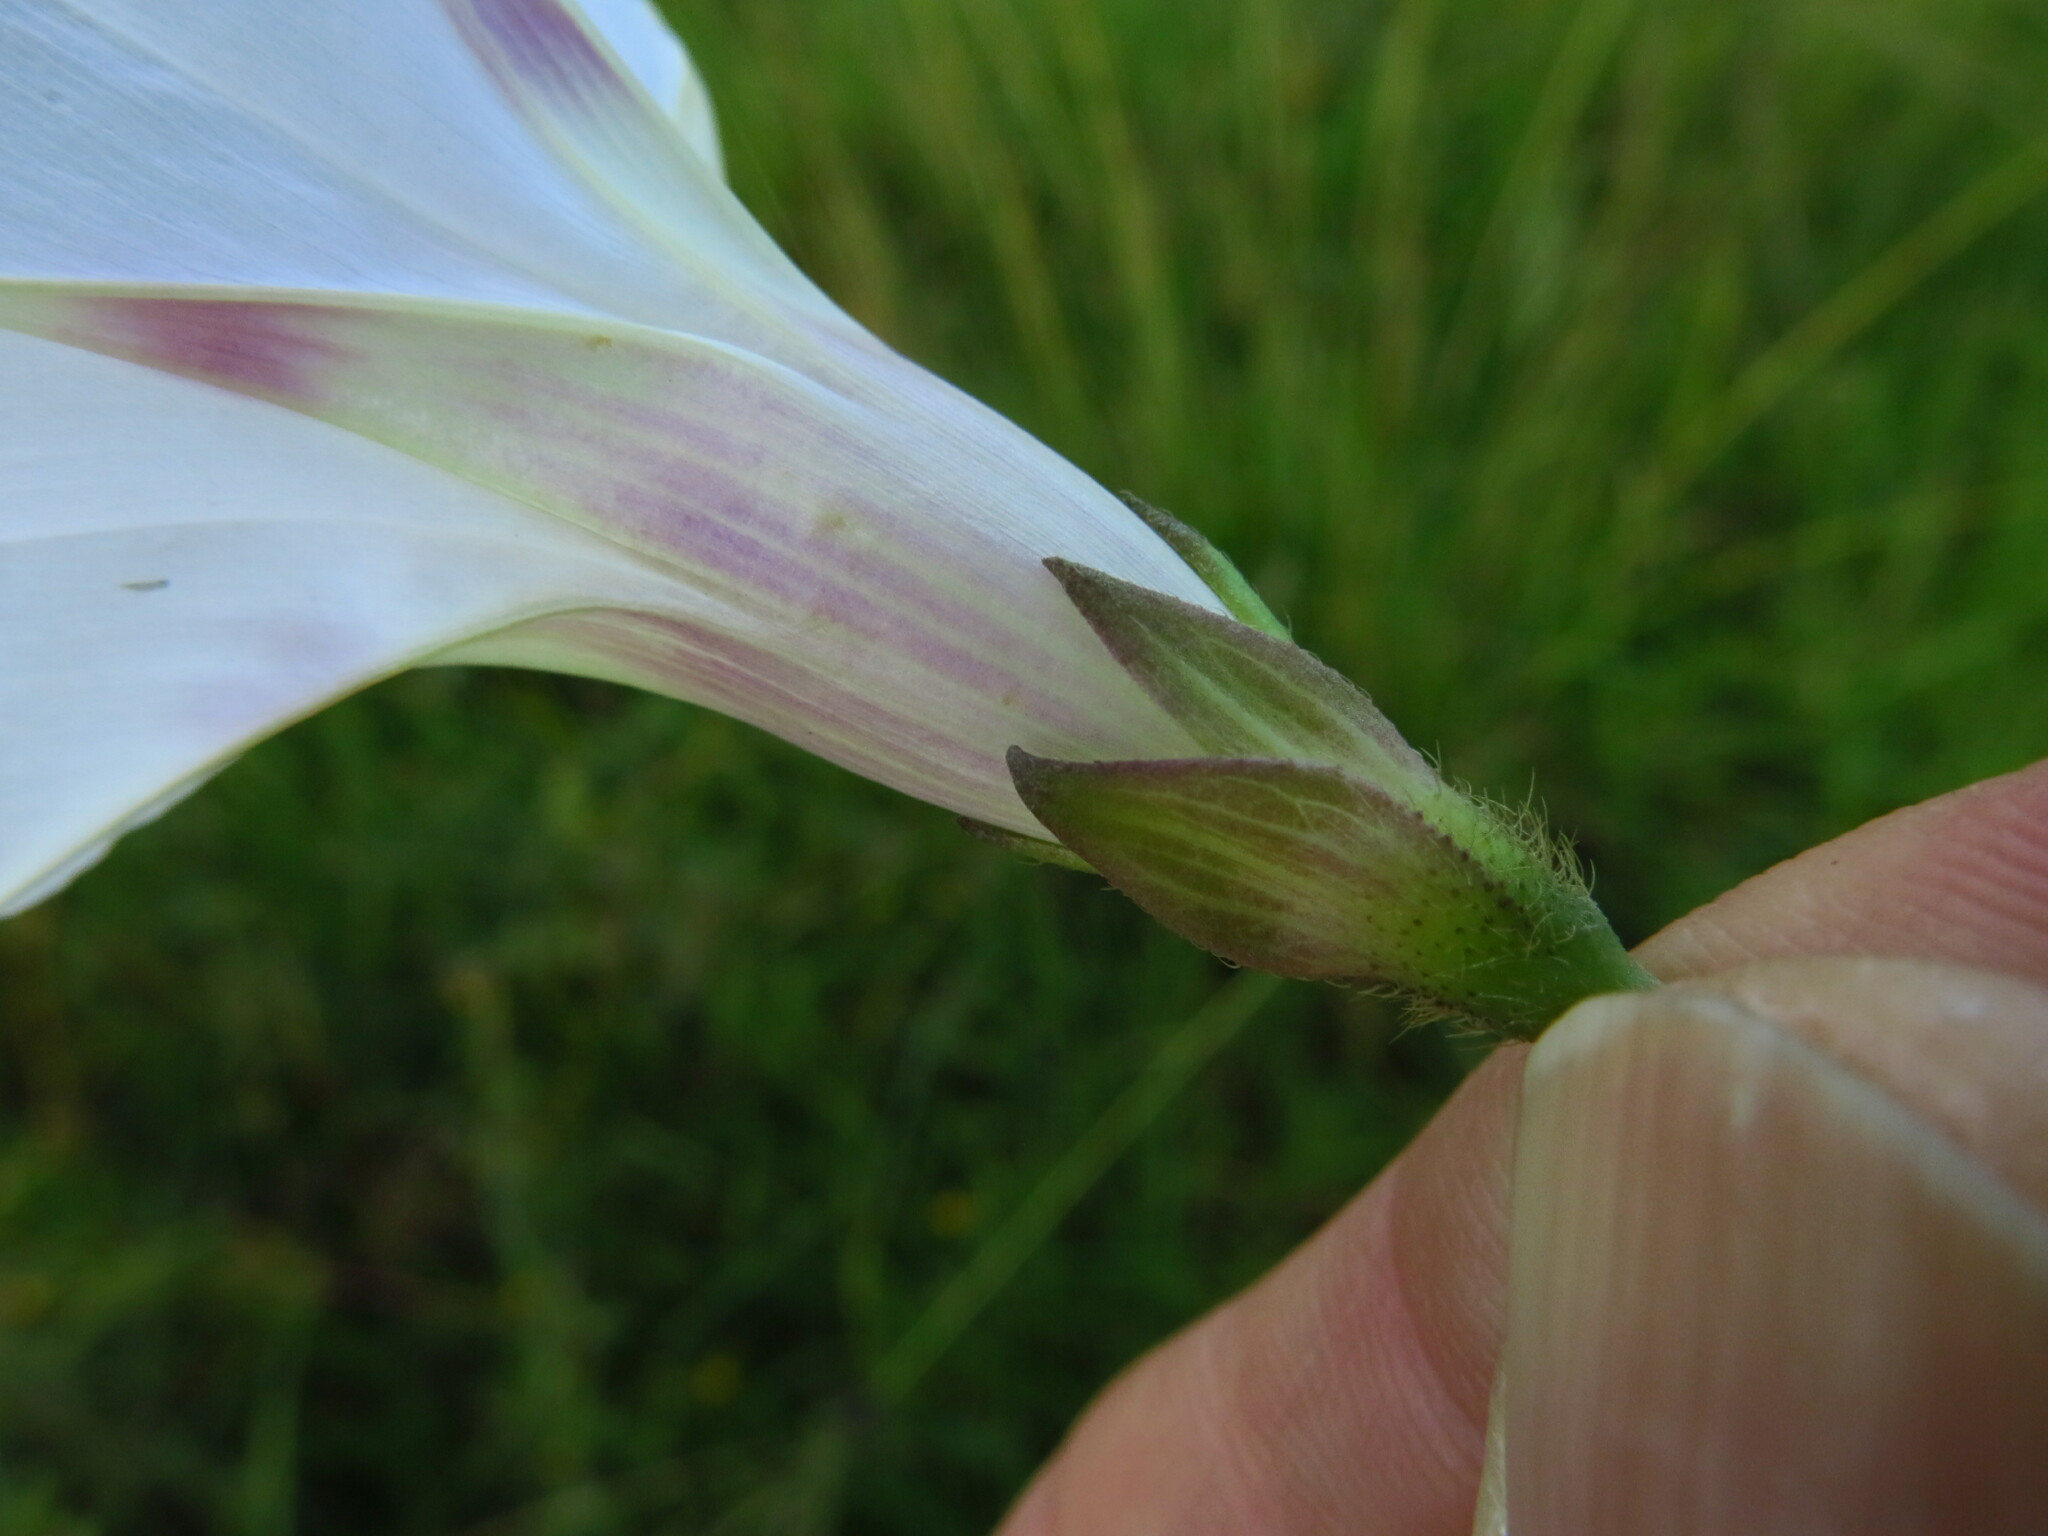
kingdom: Plantae
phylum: Tracheophyta
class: Magnoliopsida
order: Solanales
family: Convolvulaceae
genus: Ipomoea
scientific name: Ipomoea purpurea
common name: Common morning-glory
